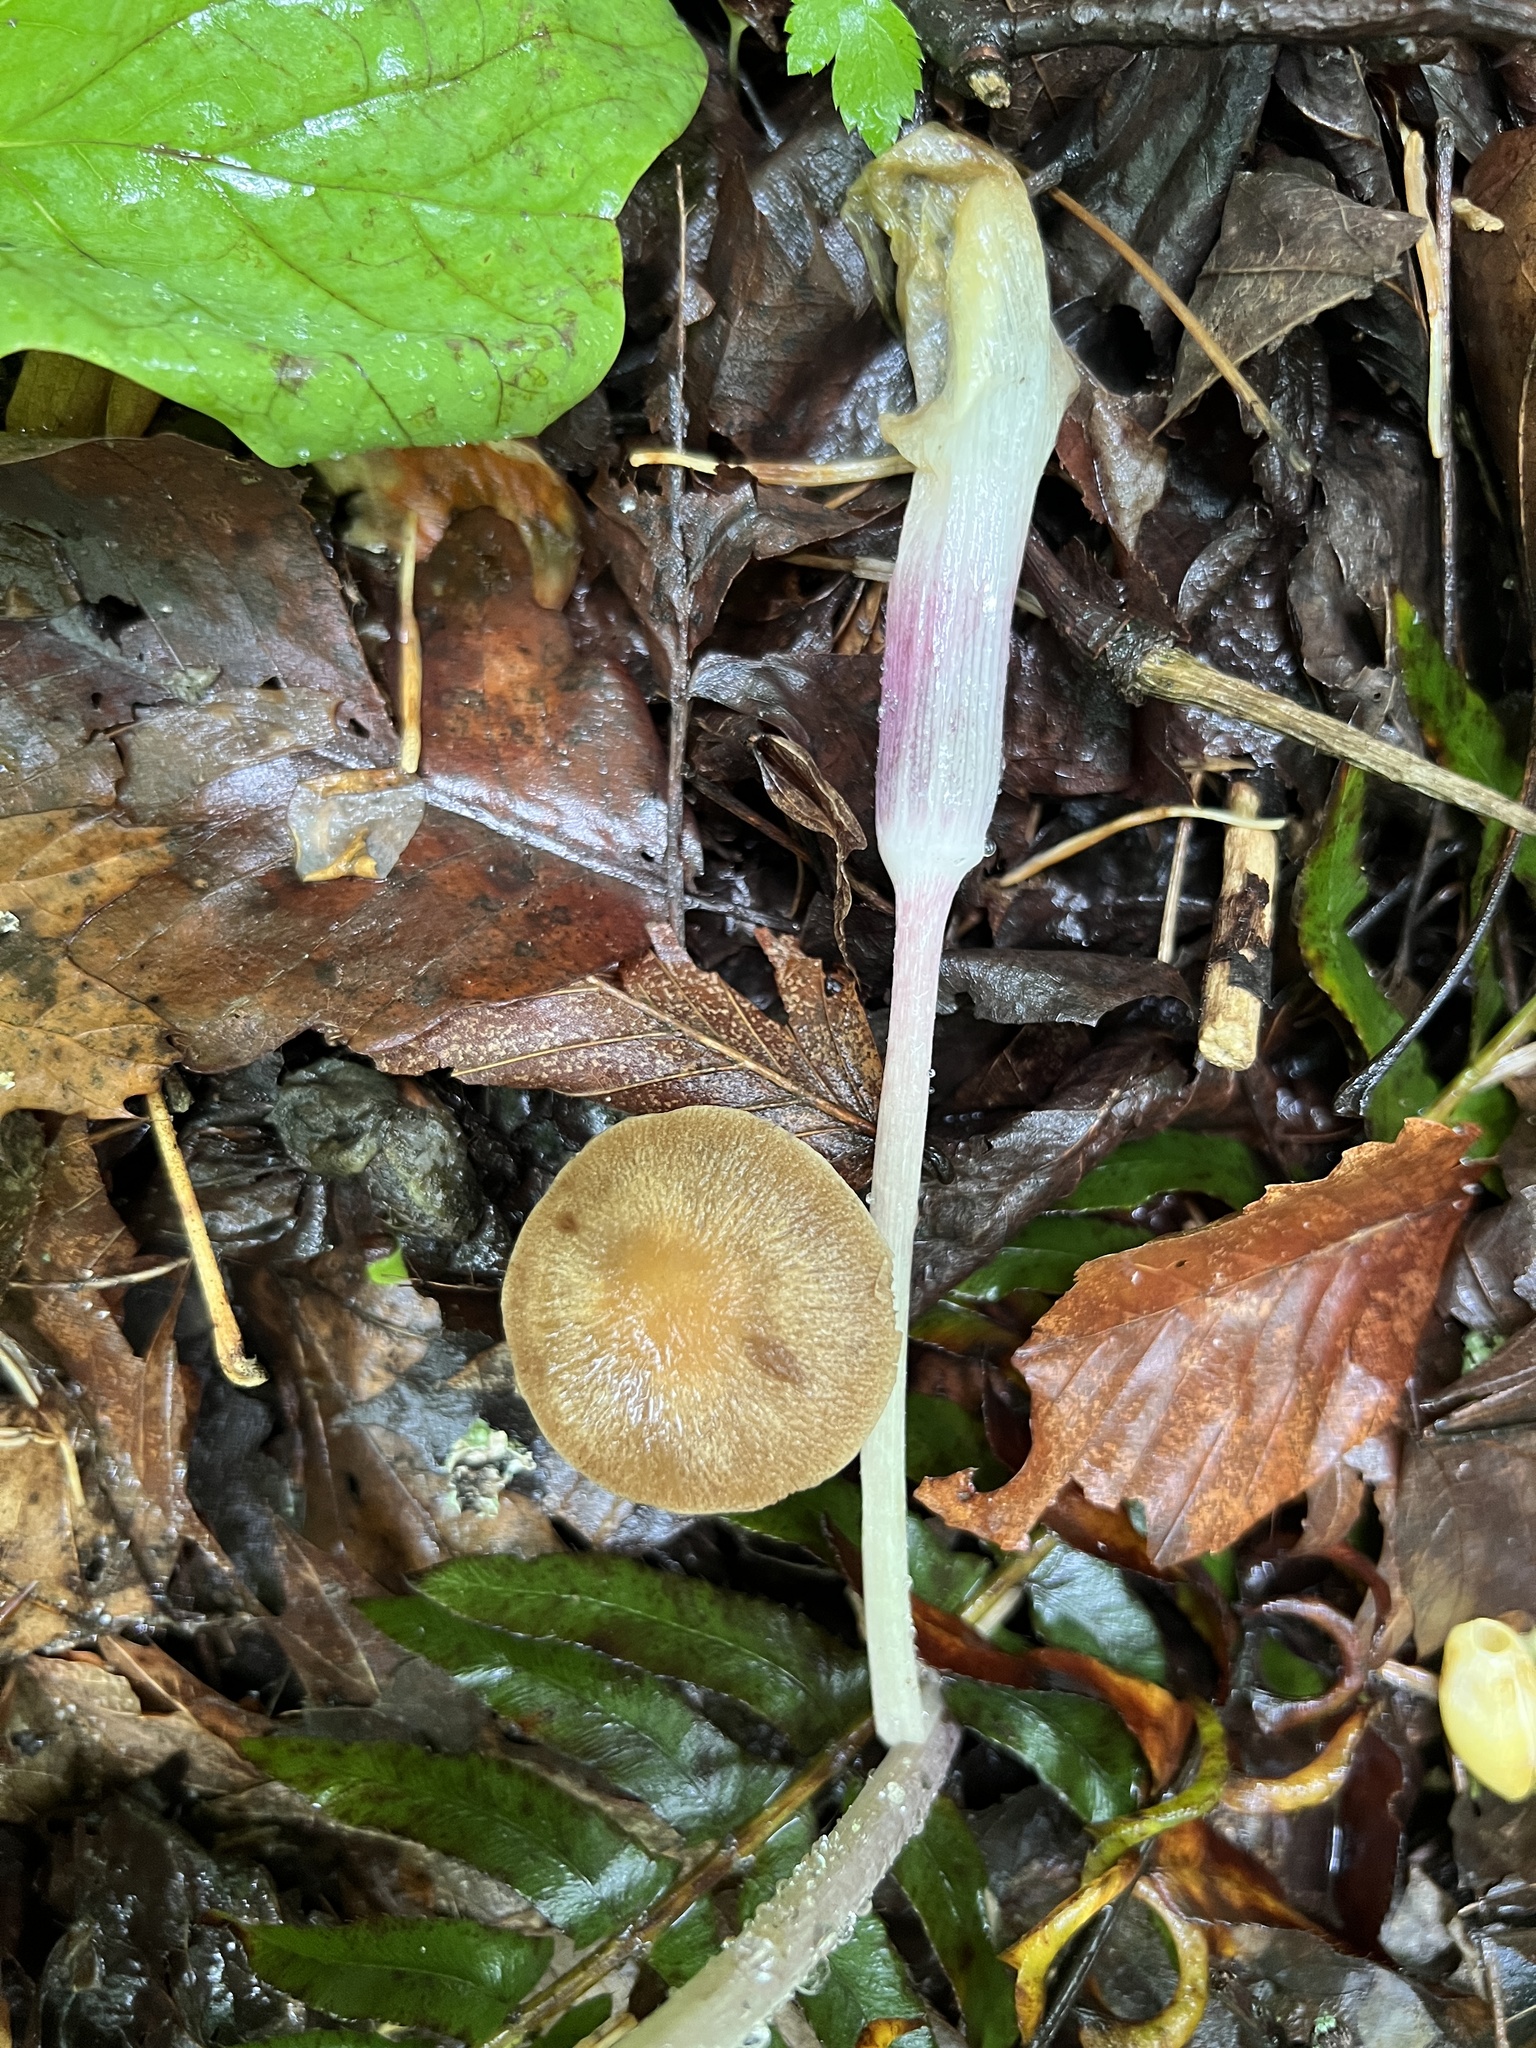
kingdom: Fungi
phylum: Basidiomycota
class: Agaricomycetes
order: Agaricales
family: Psathyrellaceae
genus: Typhrasa
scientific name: Typhrasa gossypina
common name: Wrinkled psathyrella
